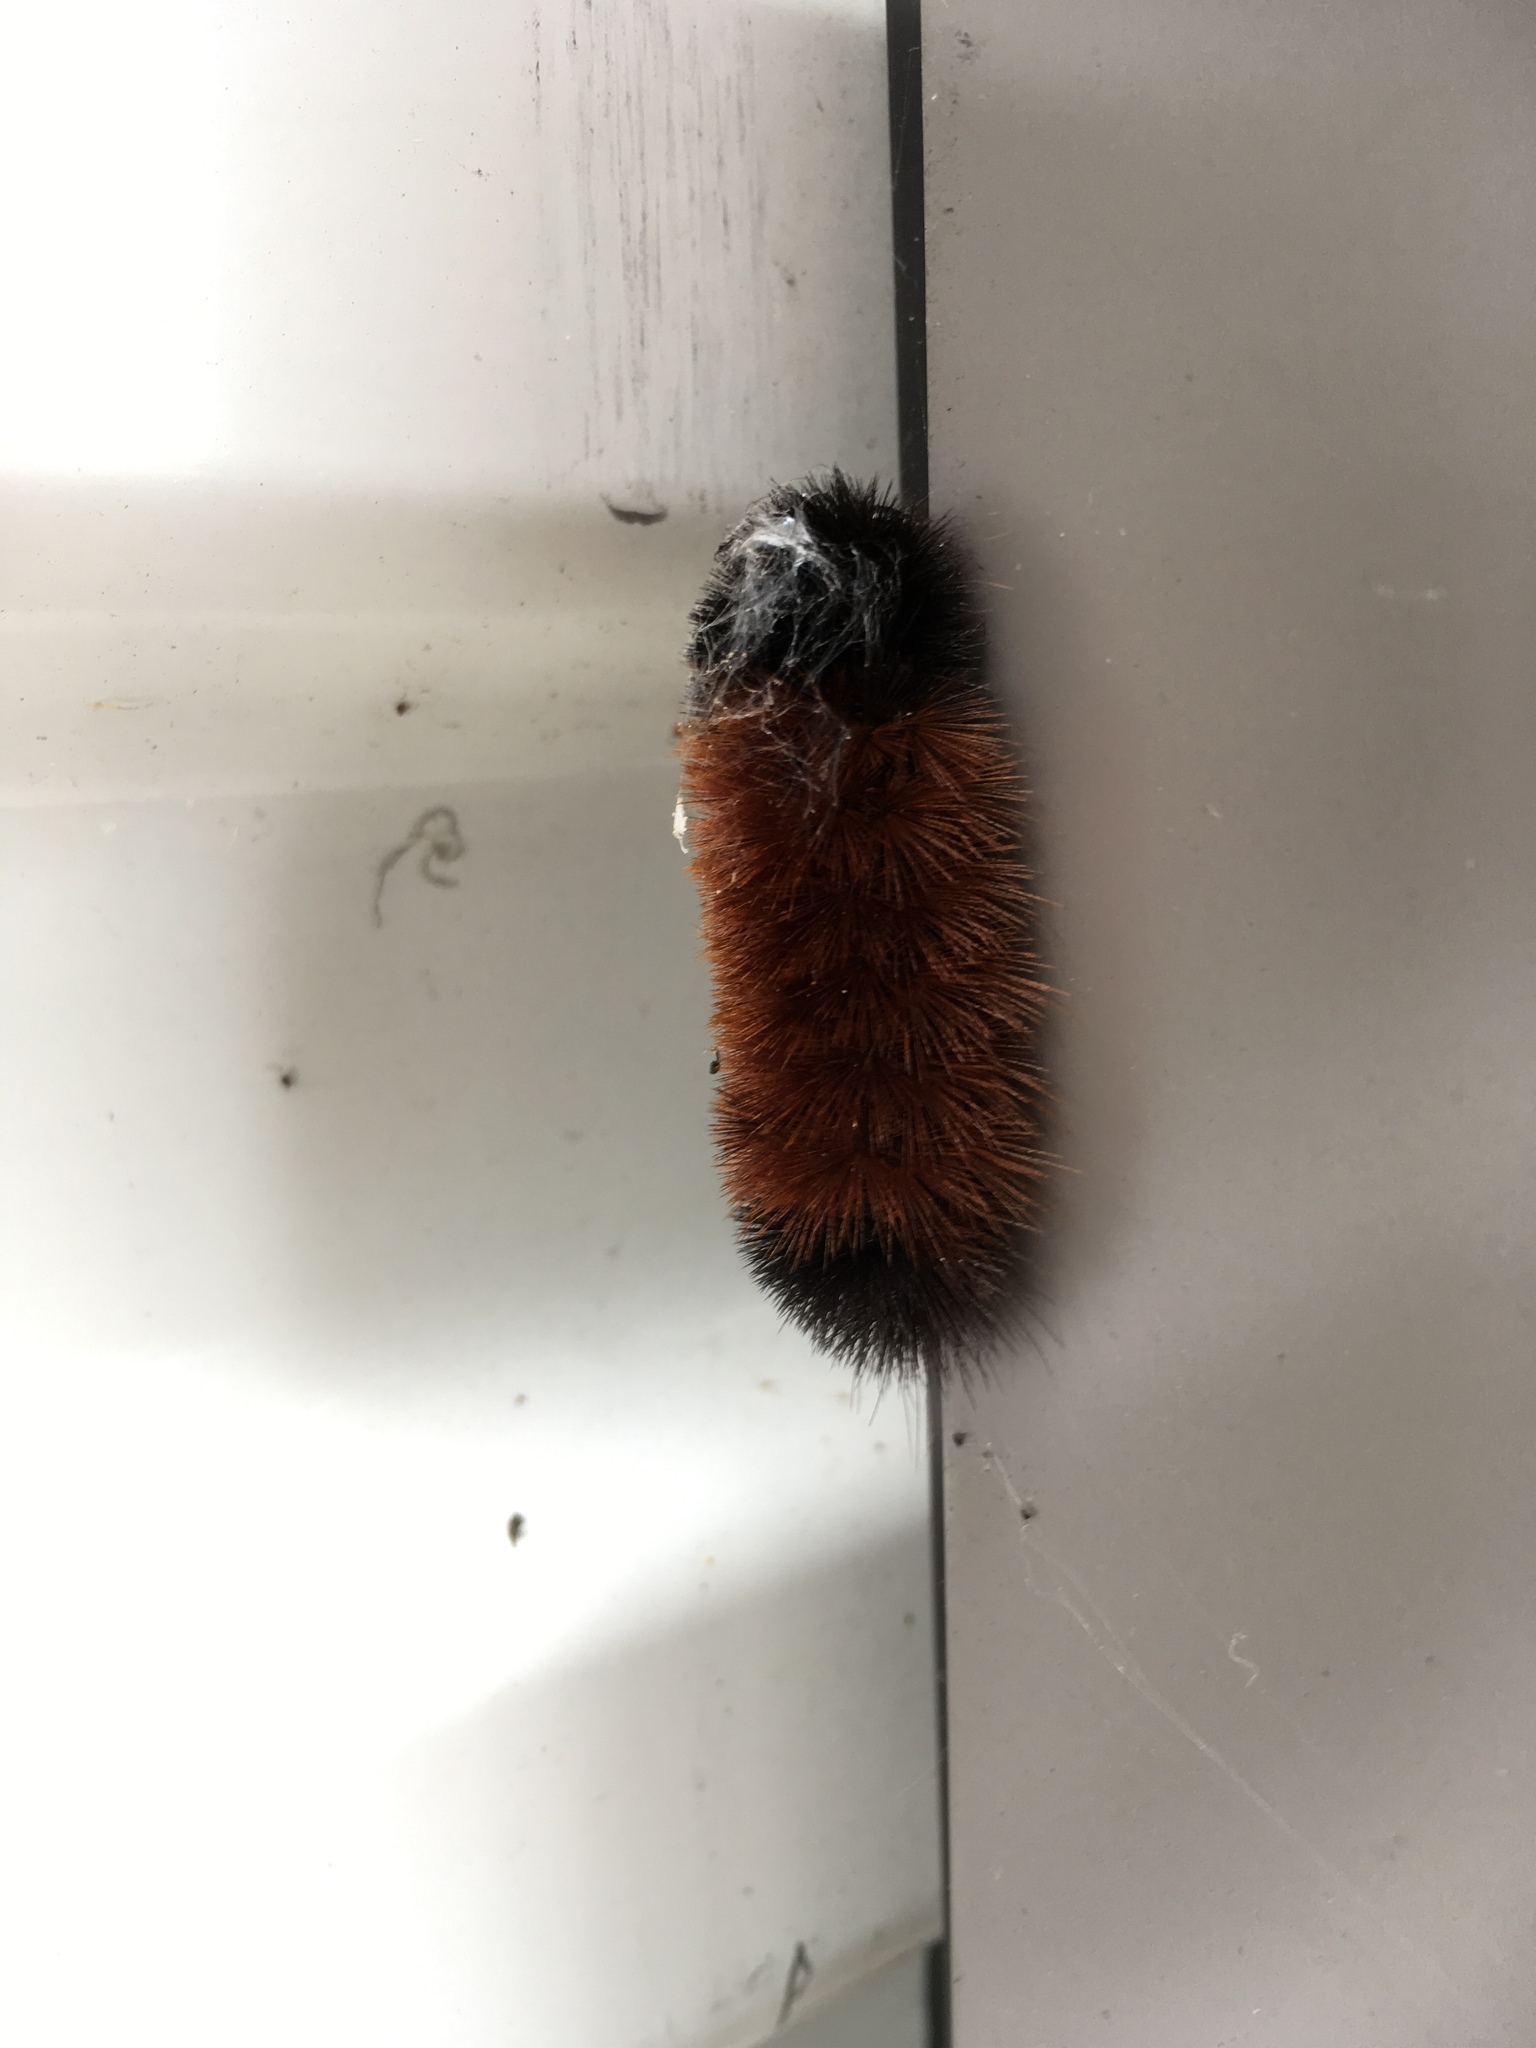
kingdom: Animalia
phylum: Arthropoda
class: Insecta
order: Lepidoptera
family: Erebidae
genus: Pyrrharctia
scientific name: Pyrrharctia isabella
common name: Isabella tiger moth
